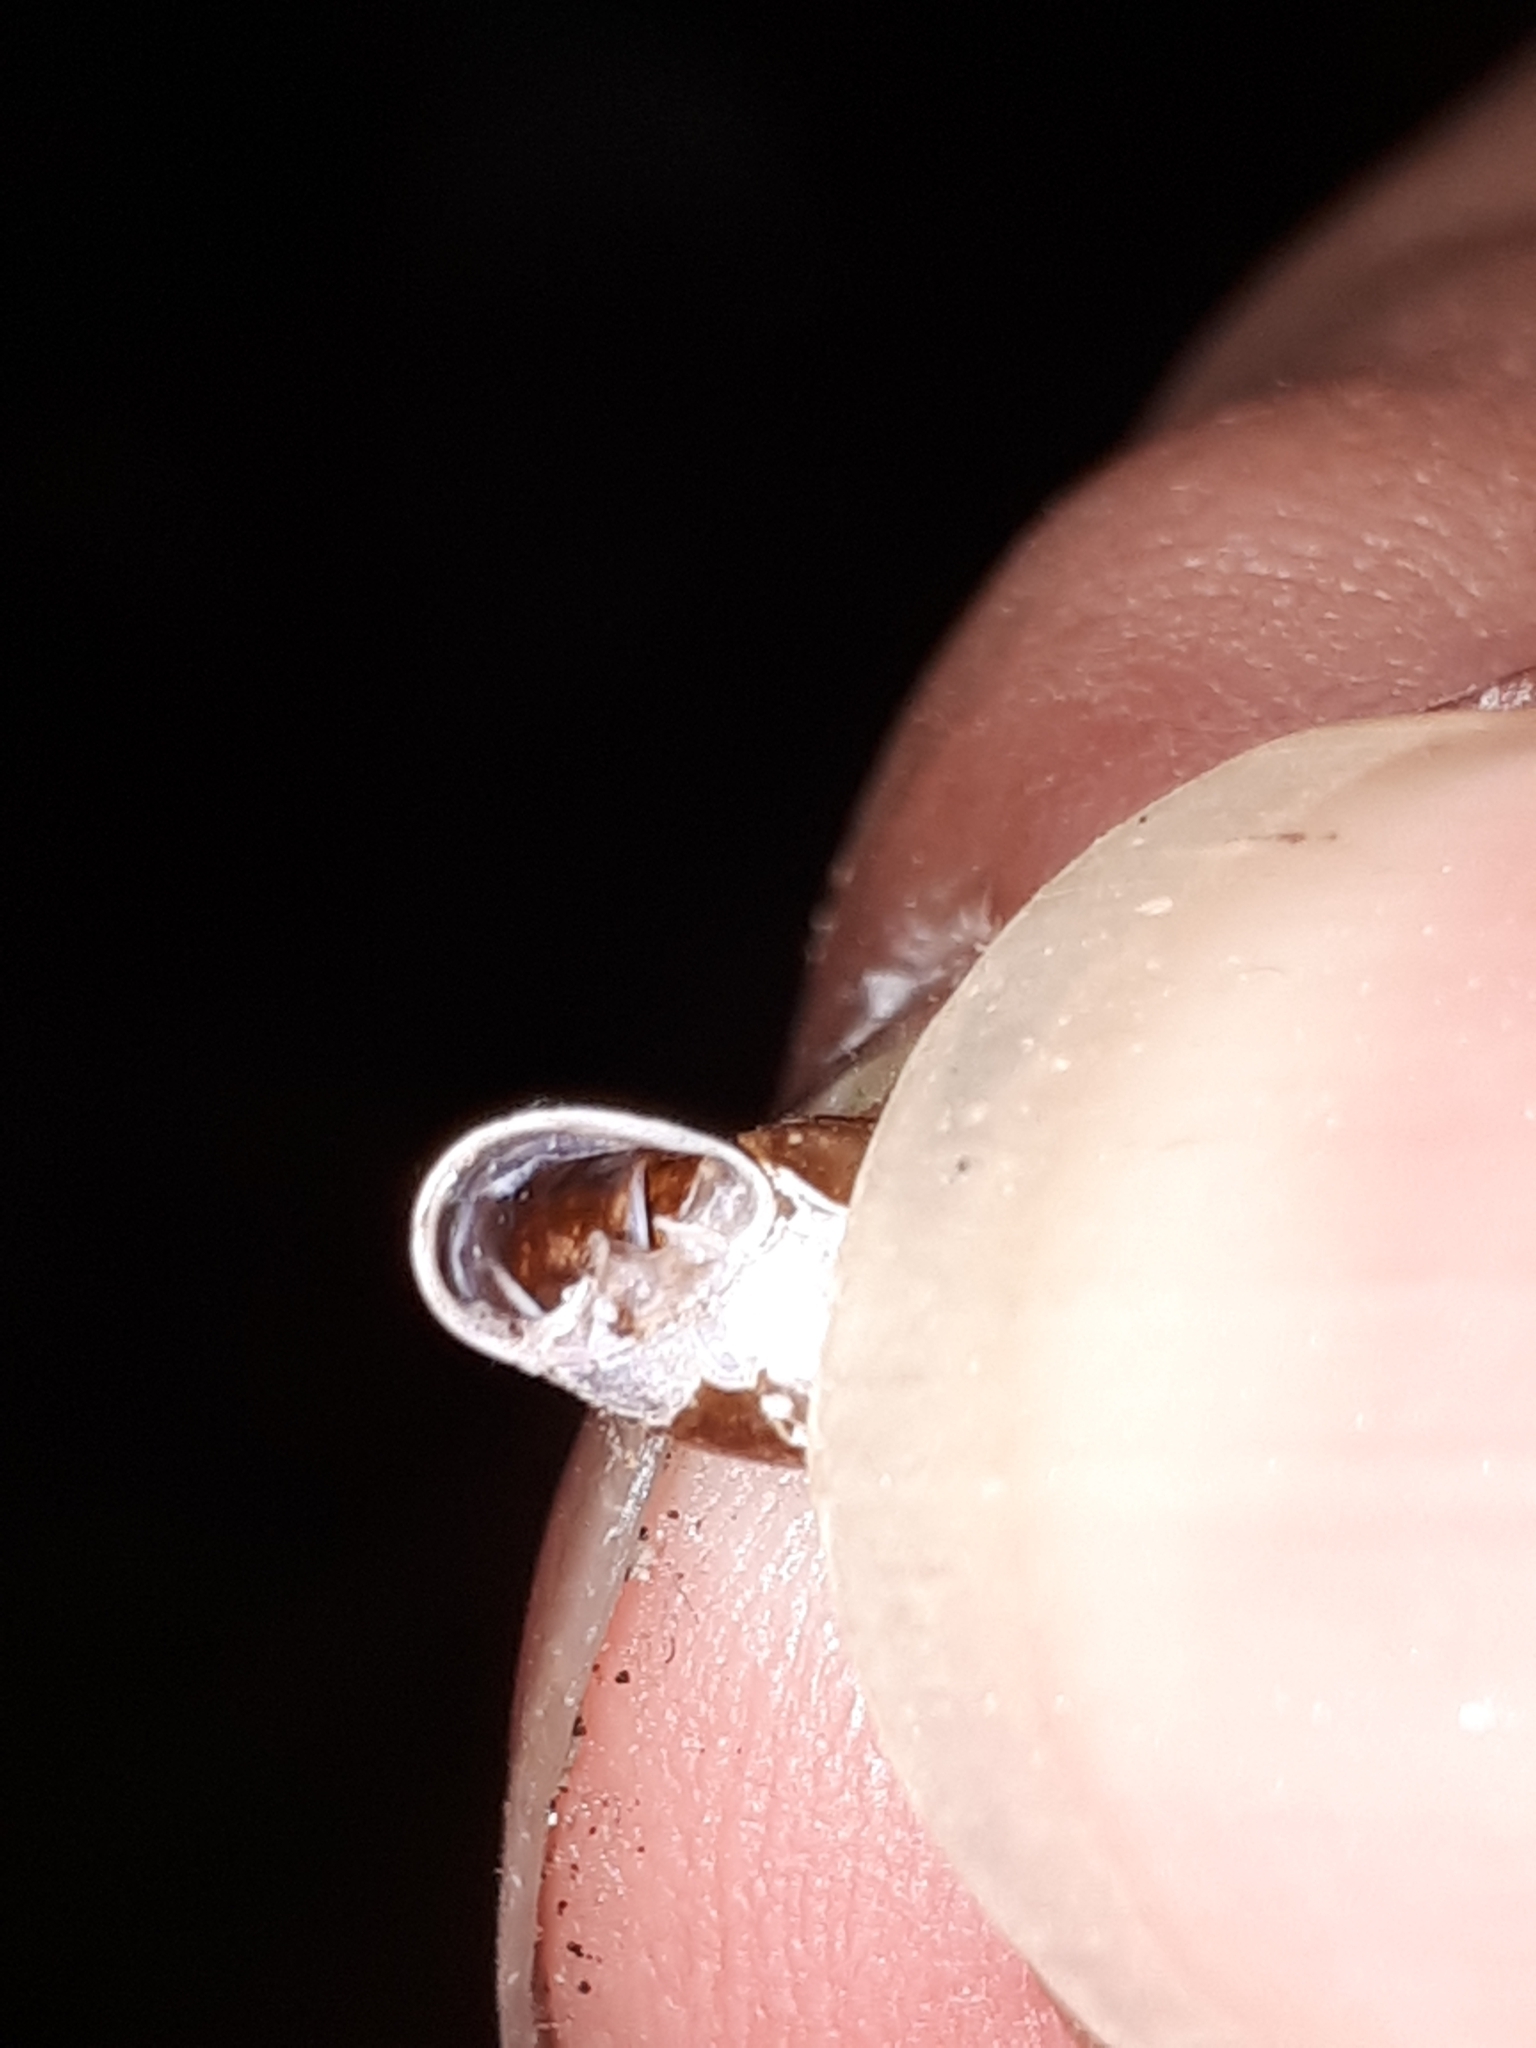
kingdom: Animalia
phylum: Mollusca
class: Gastropoda
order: Stylommatophora
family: Clausiliidae
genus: Cochlodina
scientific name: Cochlodina laminata
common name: Plaited door snail
